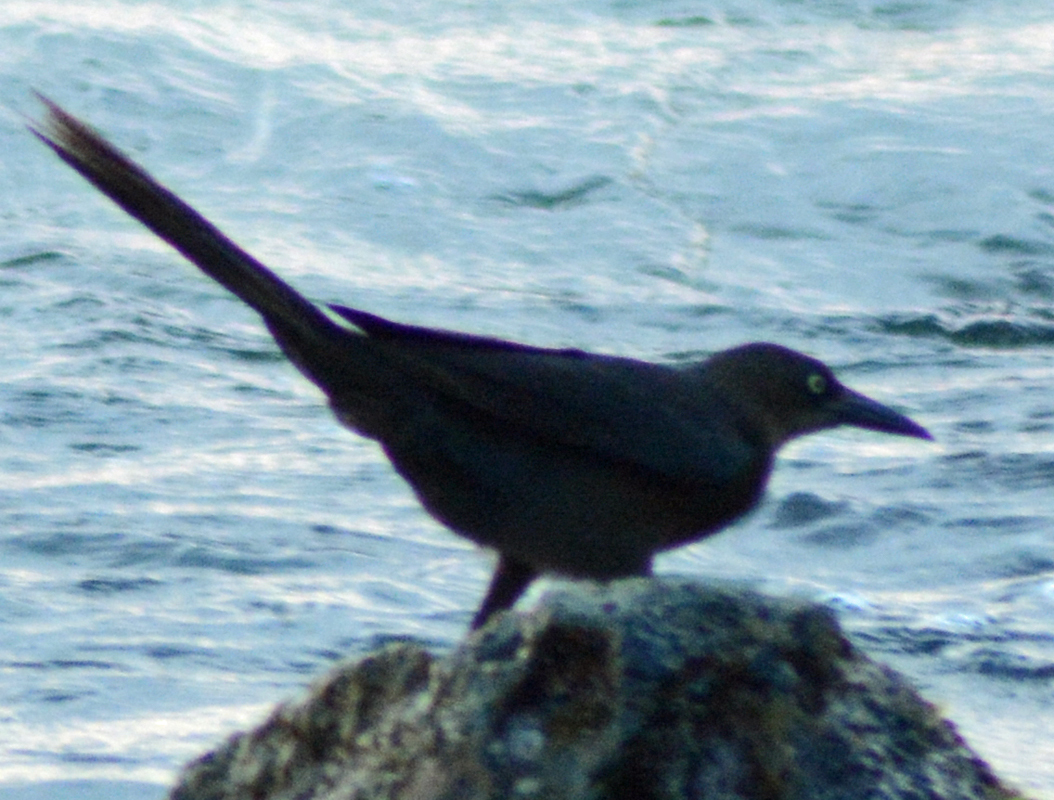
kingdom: Animalia
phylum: Chordata
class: Aves
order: Passeriformes
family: Icteridae
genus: Quiscalus
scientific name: Quiscalus mexicanus
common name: Great-tailed grackle
